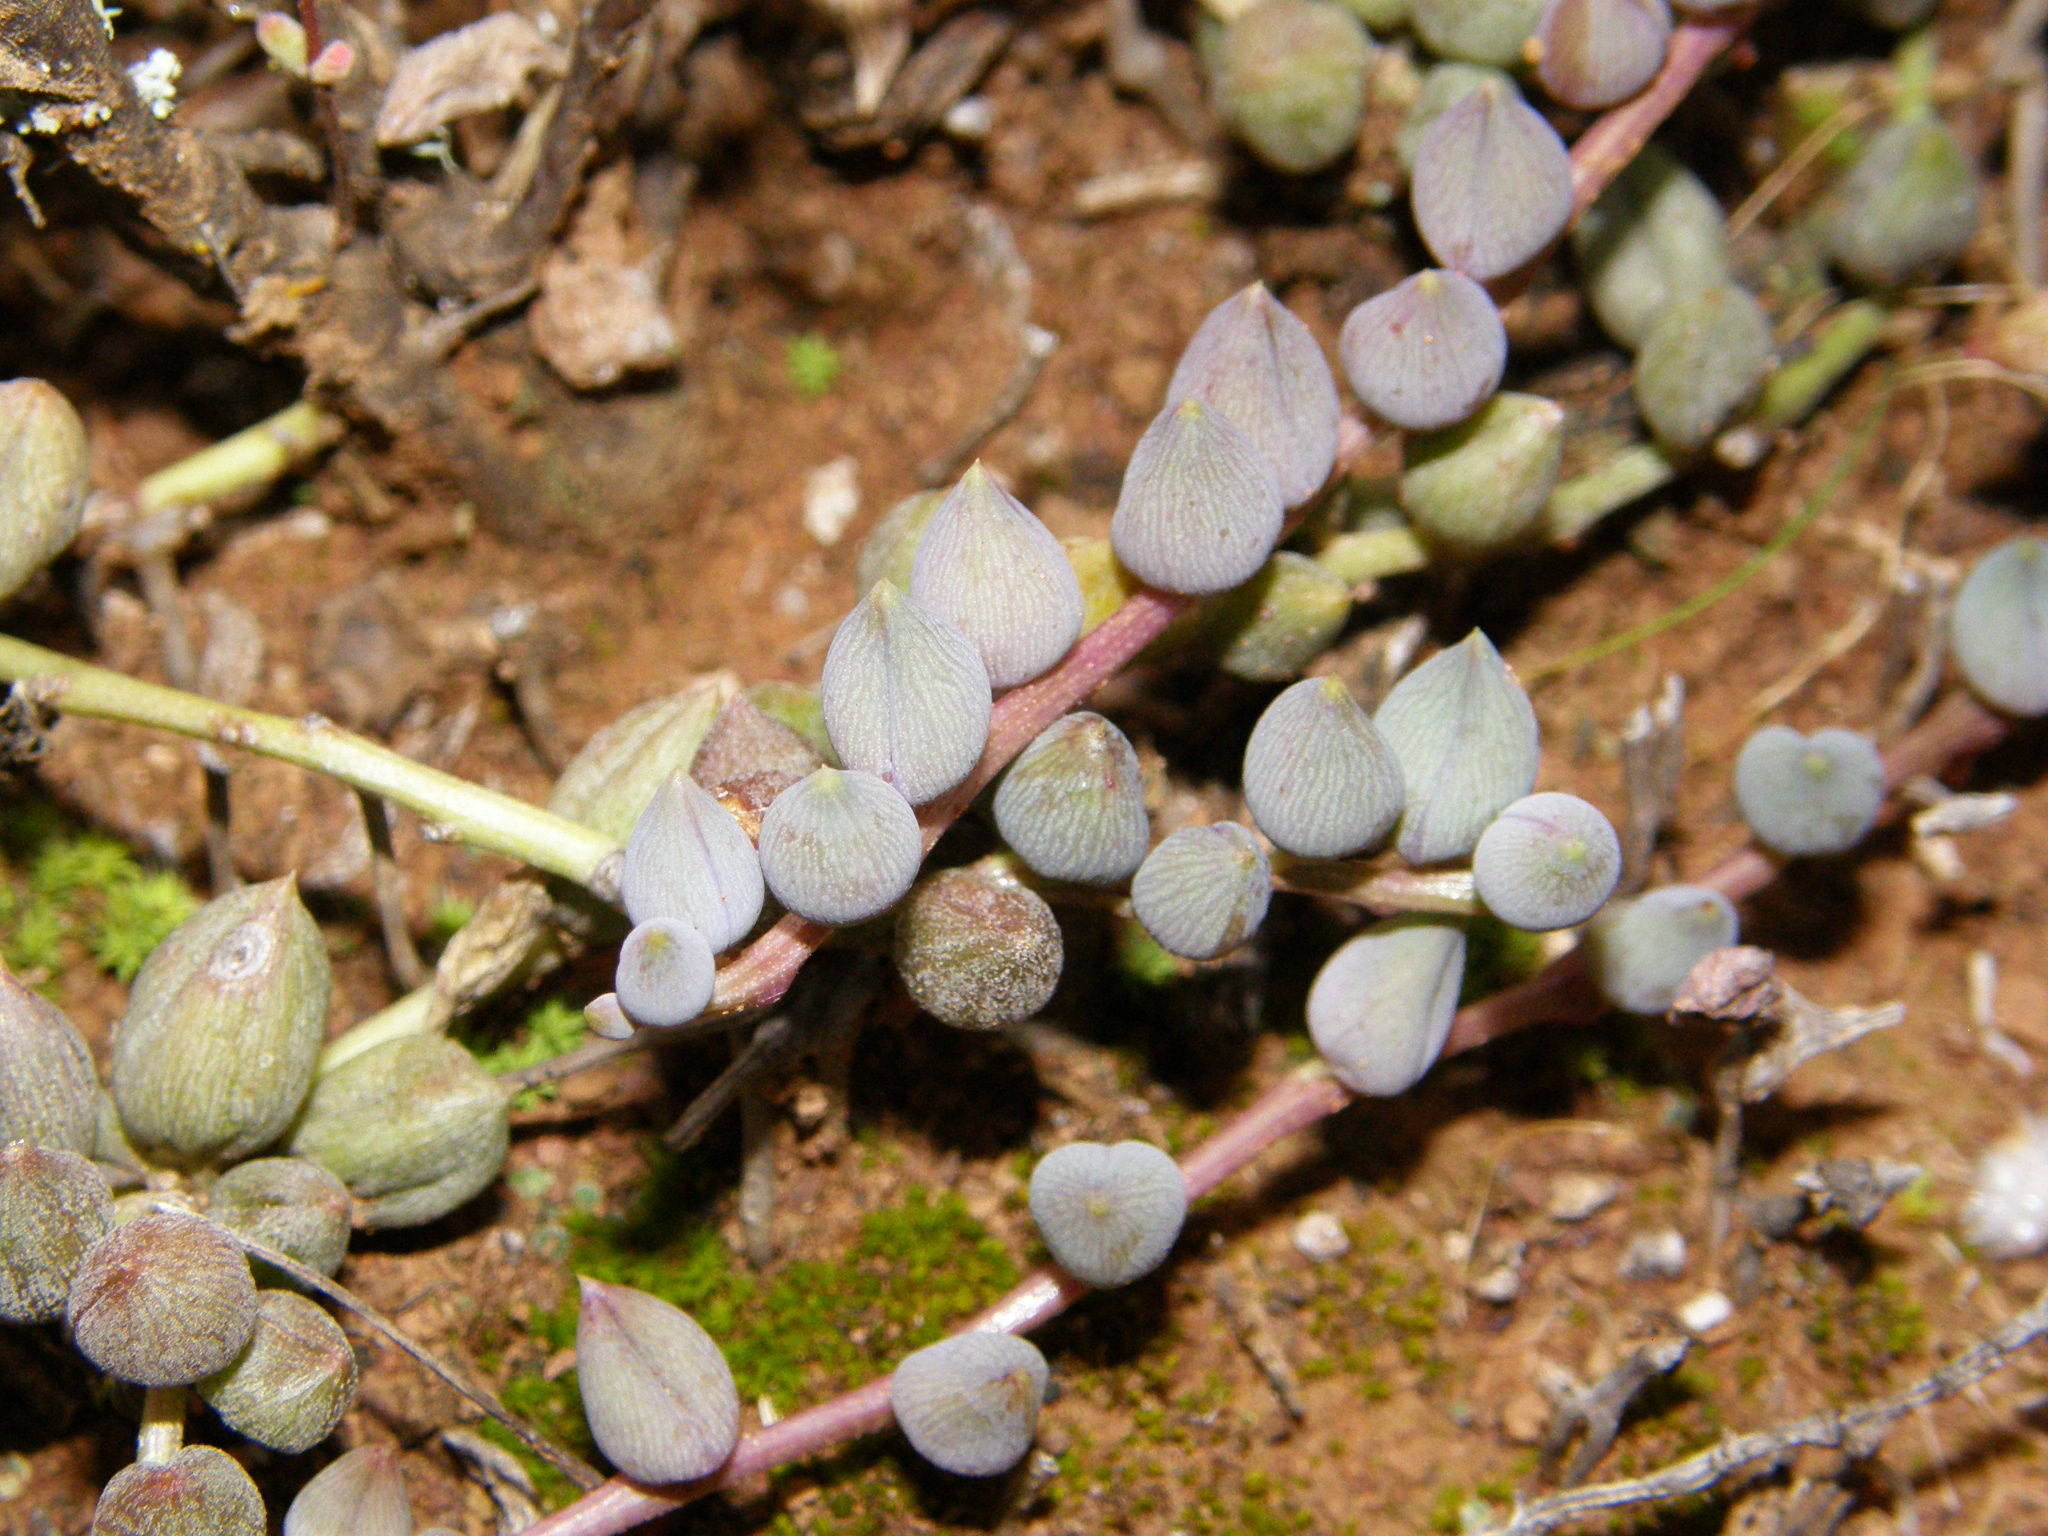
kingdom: Plantae
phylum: Tracheophyta
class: Magnoliopsida
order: Asterales
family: Asteraceae
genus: Curio
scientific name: Curio radicans
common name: Creeping-berry
